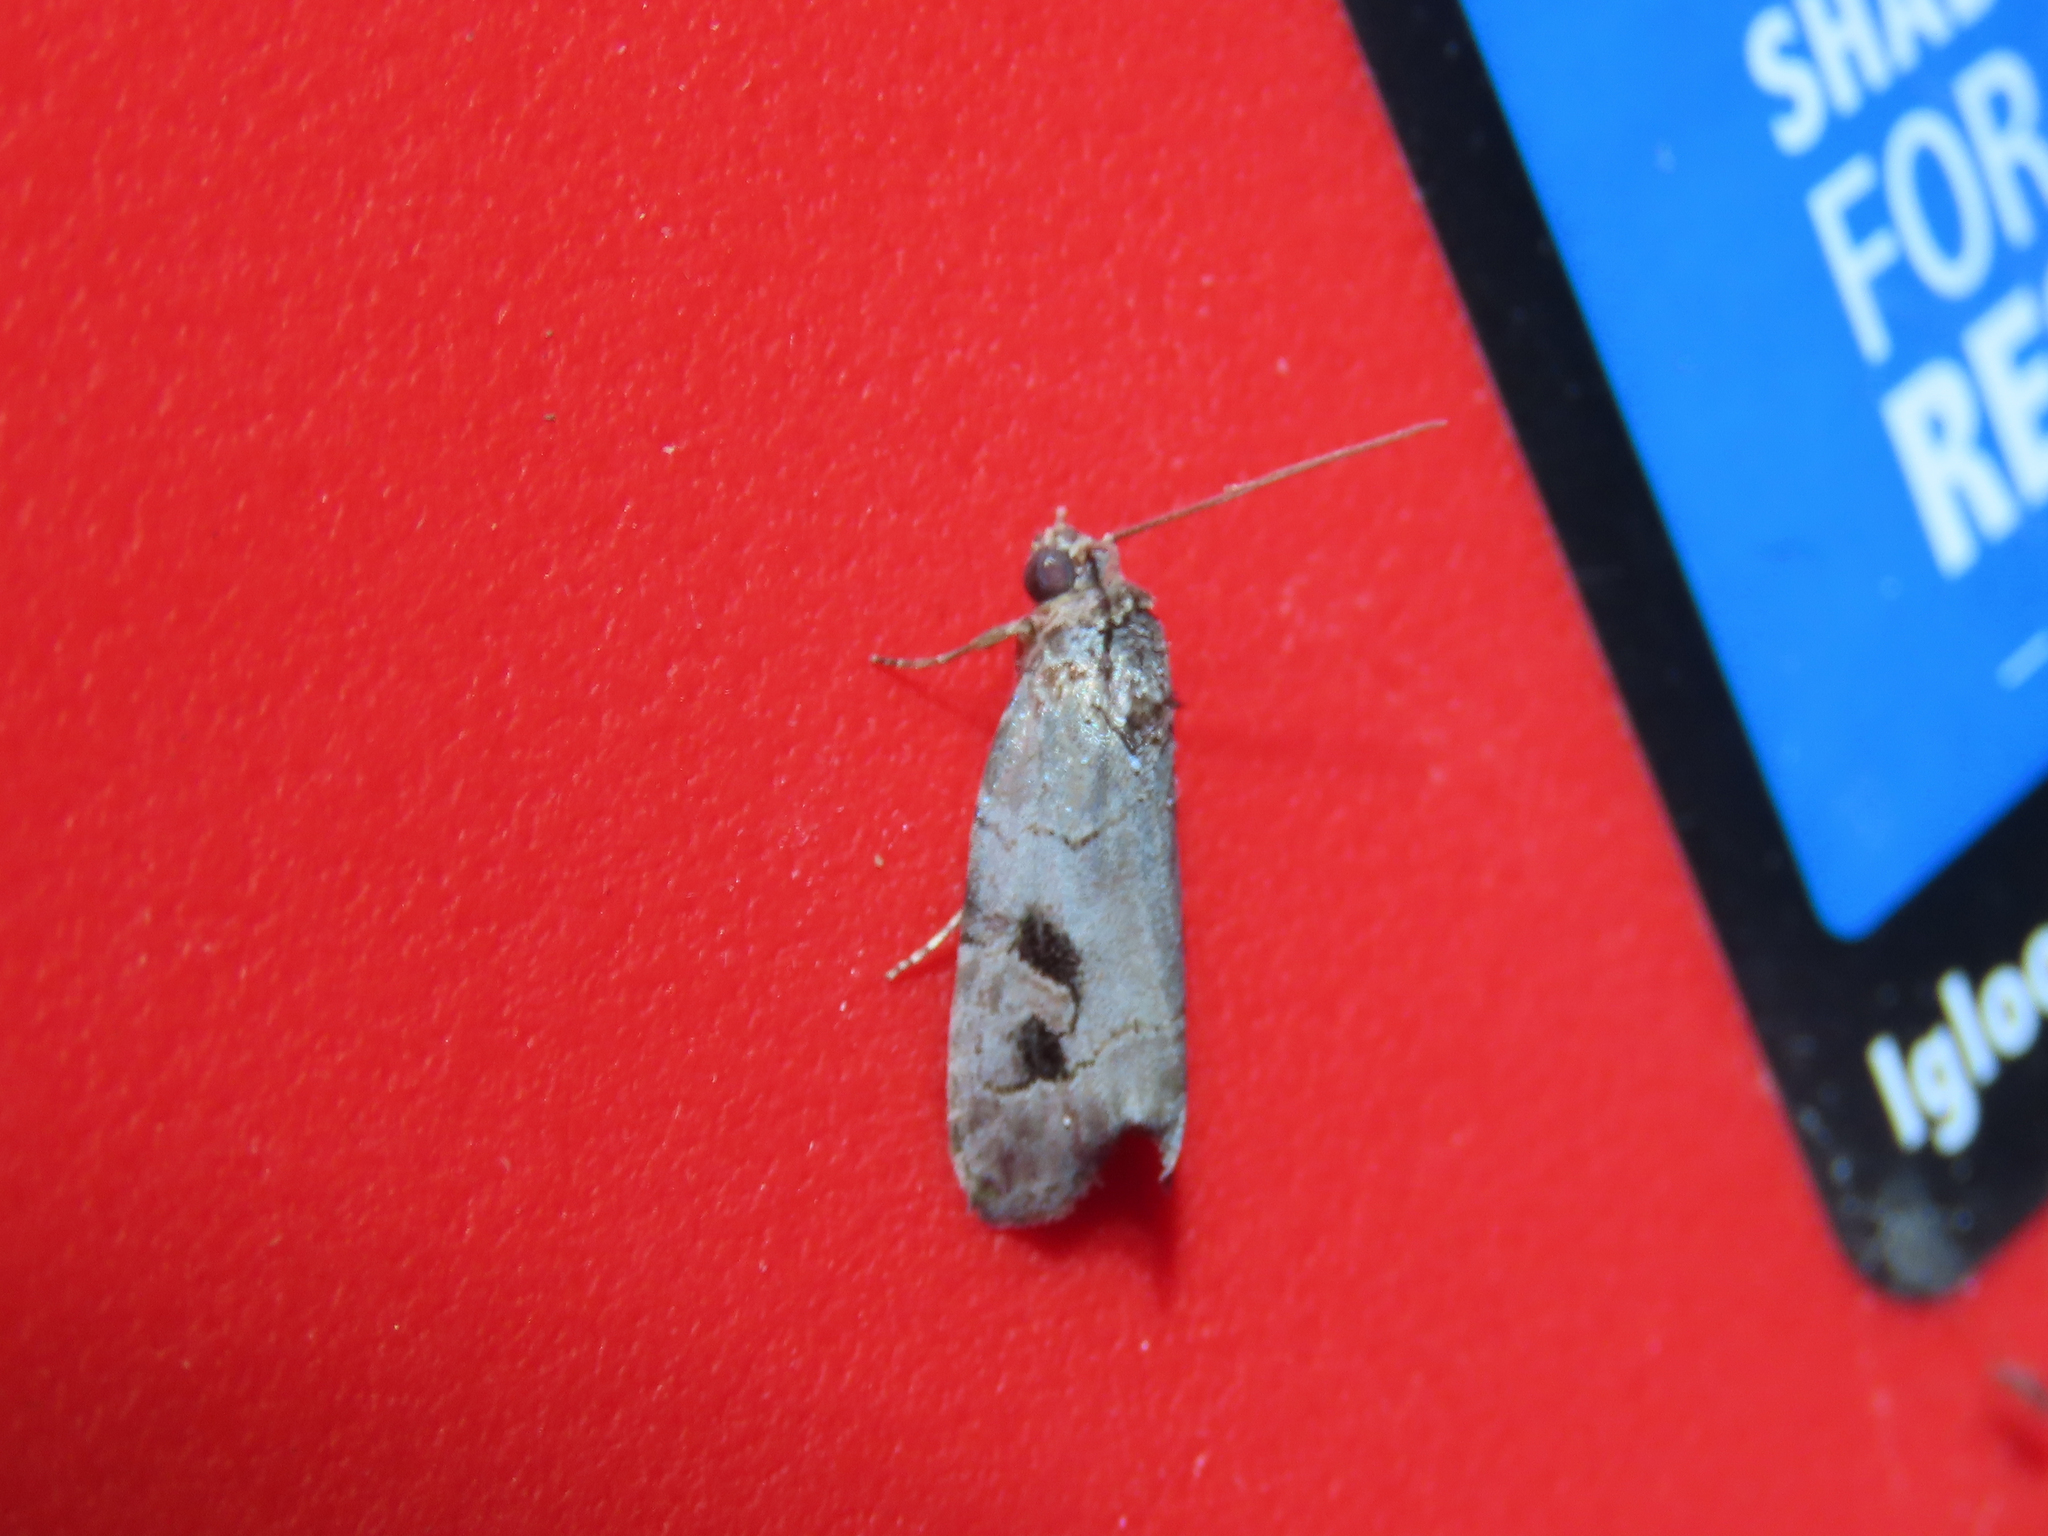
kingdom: Animalia
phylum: Arthropoda
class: Insecta
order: Lepidoptera
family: Noctuidae
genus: Metaponpneumata
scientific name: Metaponpneumata rogenhoferi
